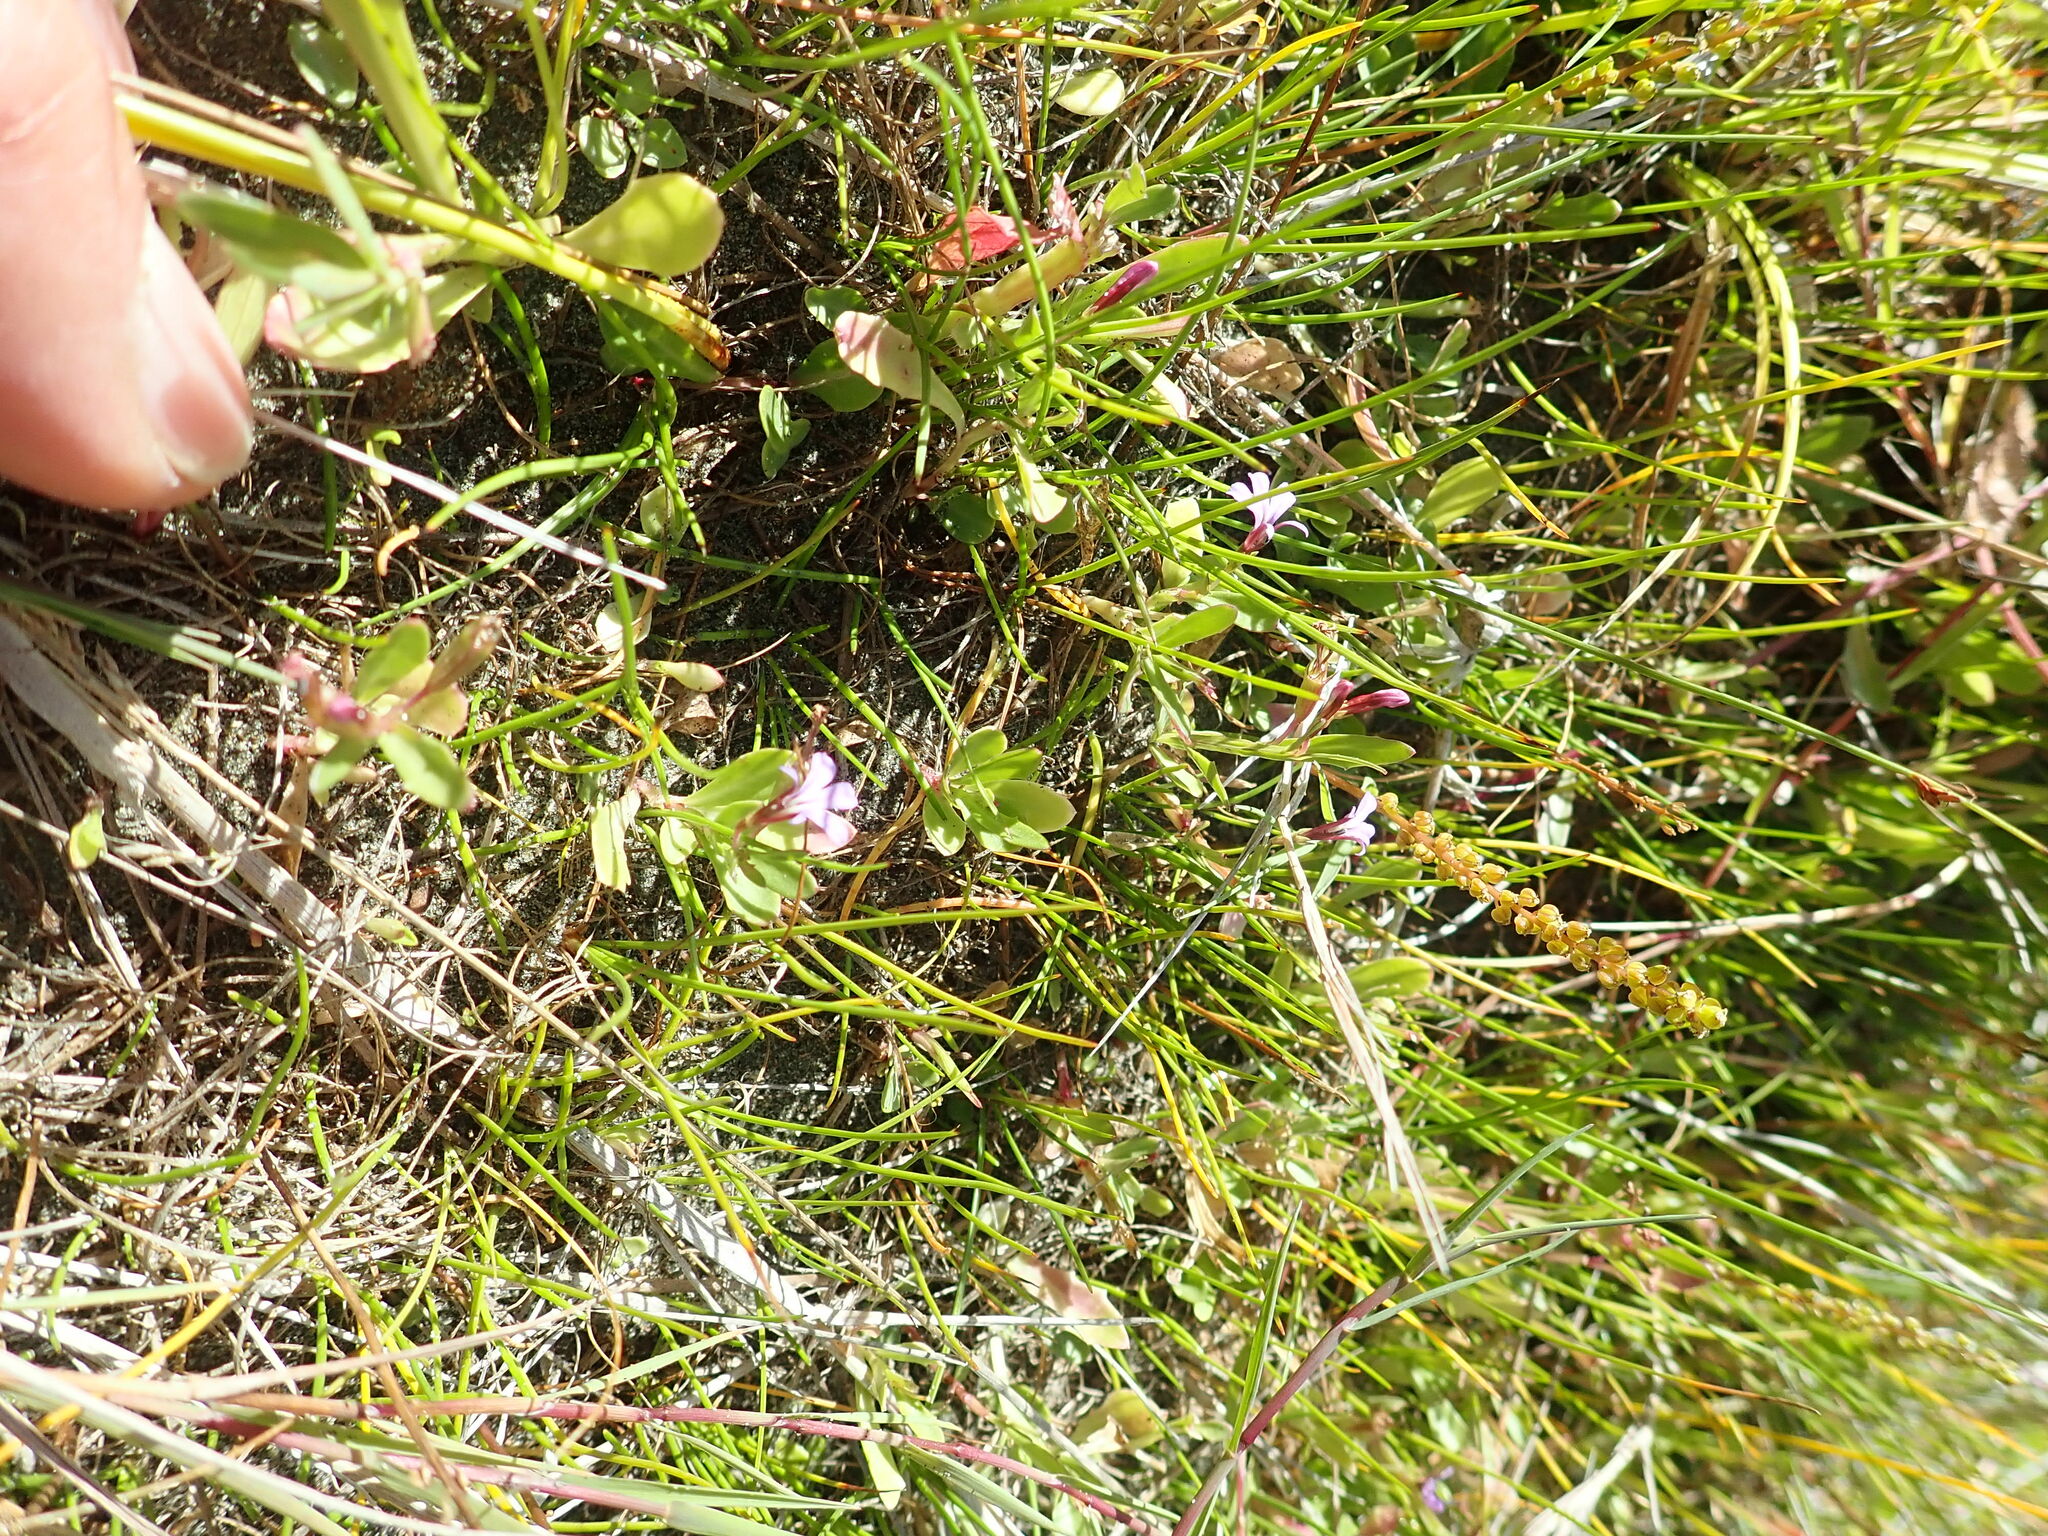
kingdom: Plantae
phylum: Tracheophyta
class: Magnoliopsida
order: Asterales
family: Campanulaceae
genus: Lobelia
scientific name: Lobelia anceps
